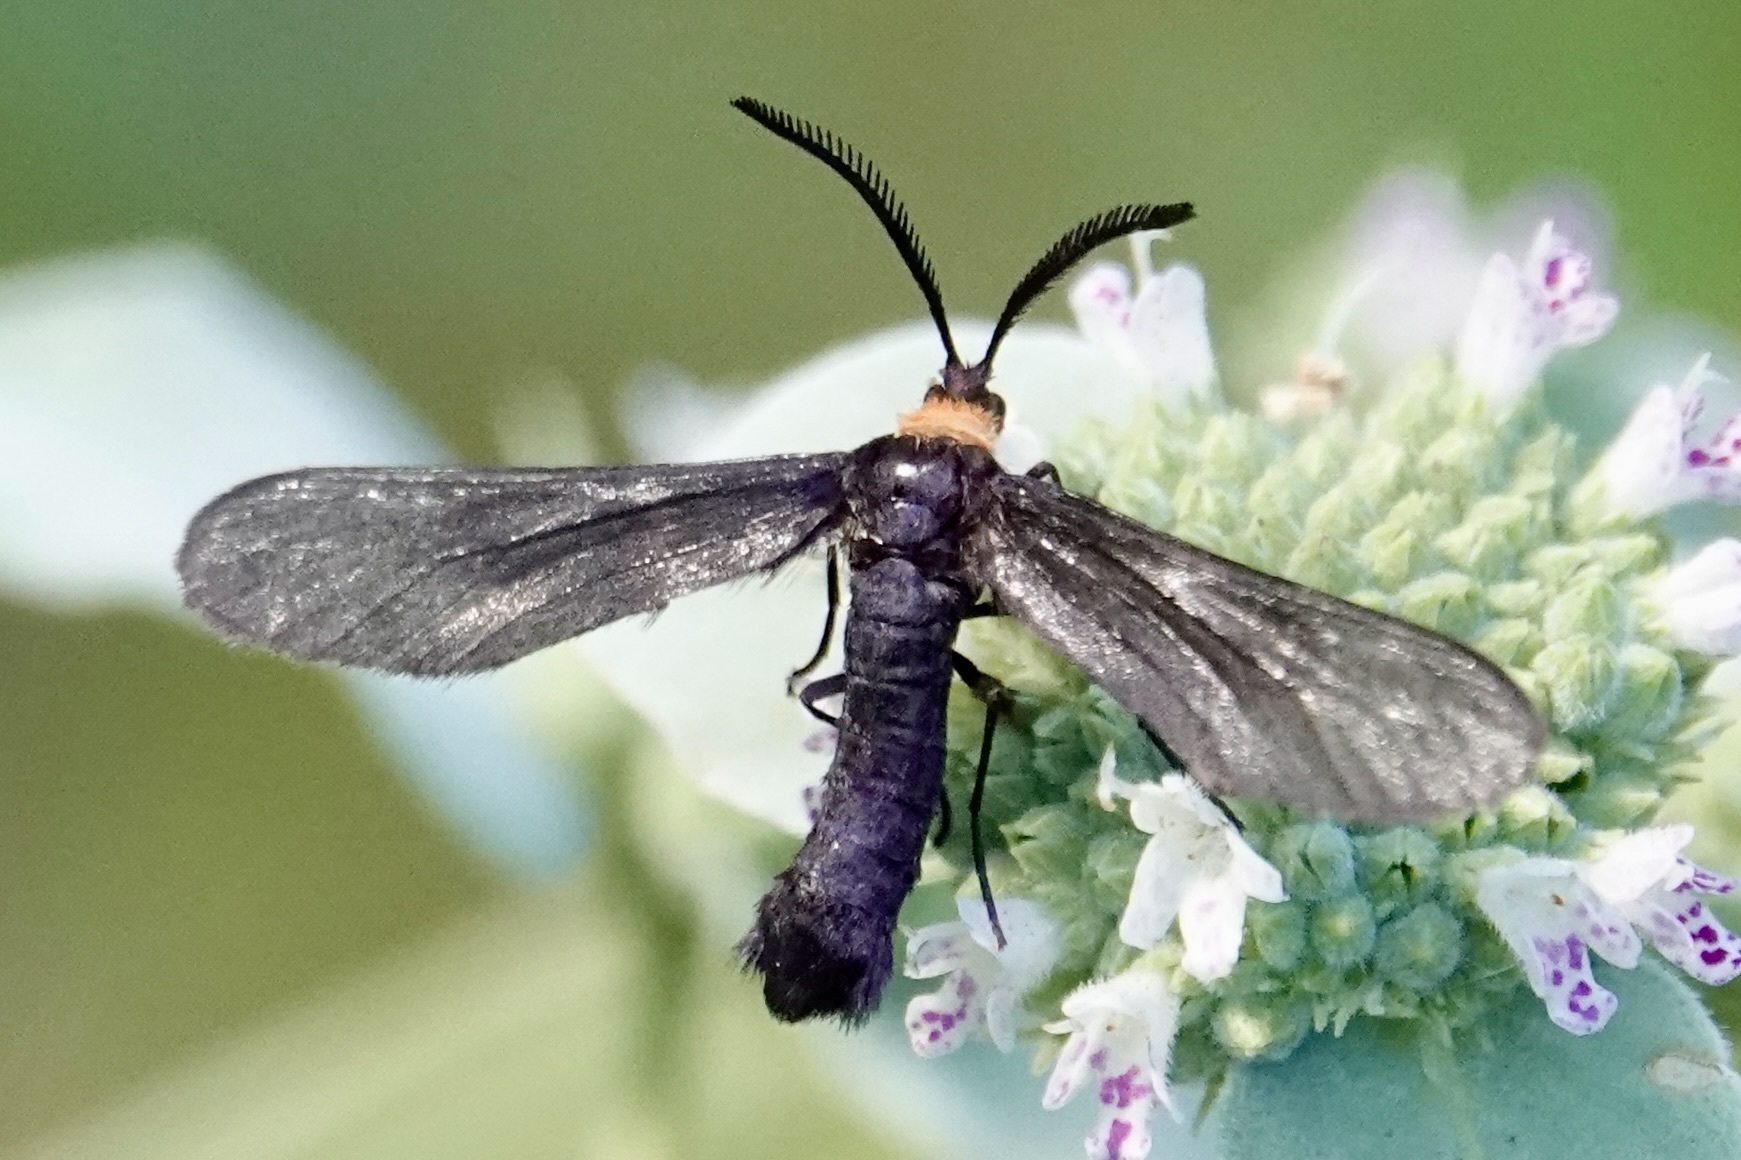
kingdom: Animalia
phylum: Arthropoda
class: Insecta
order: Lepidoptera
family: Zygaenidae
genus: Harrisina
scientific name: Harrisina americana
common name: Grapeleaf skeletonizer moth
